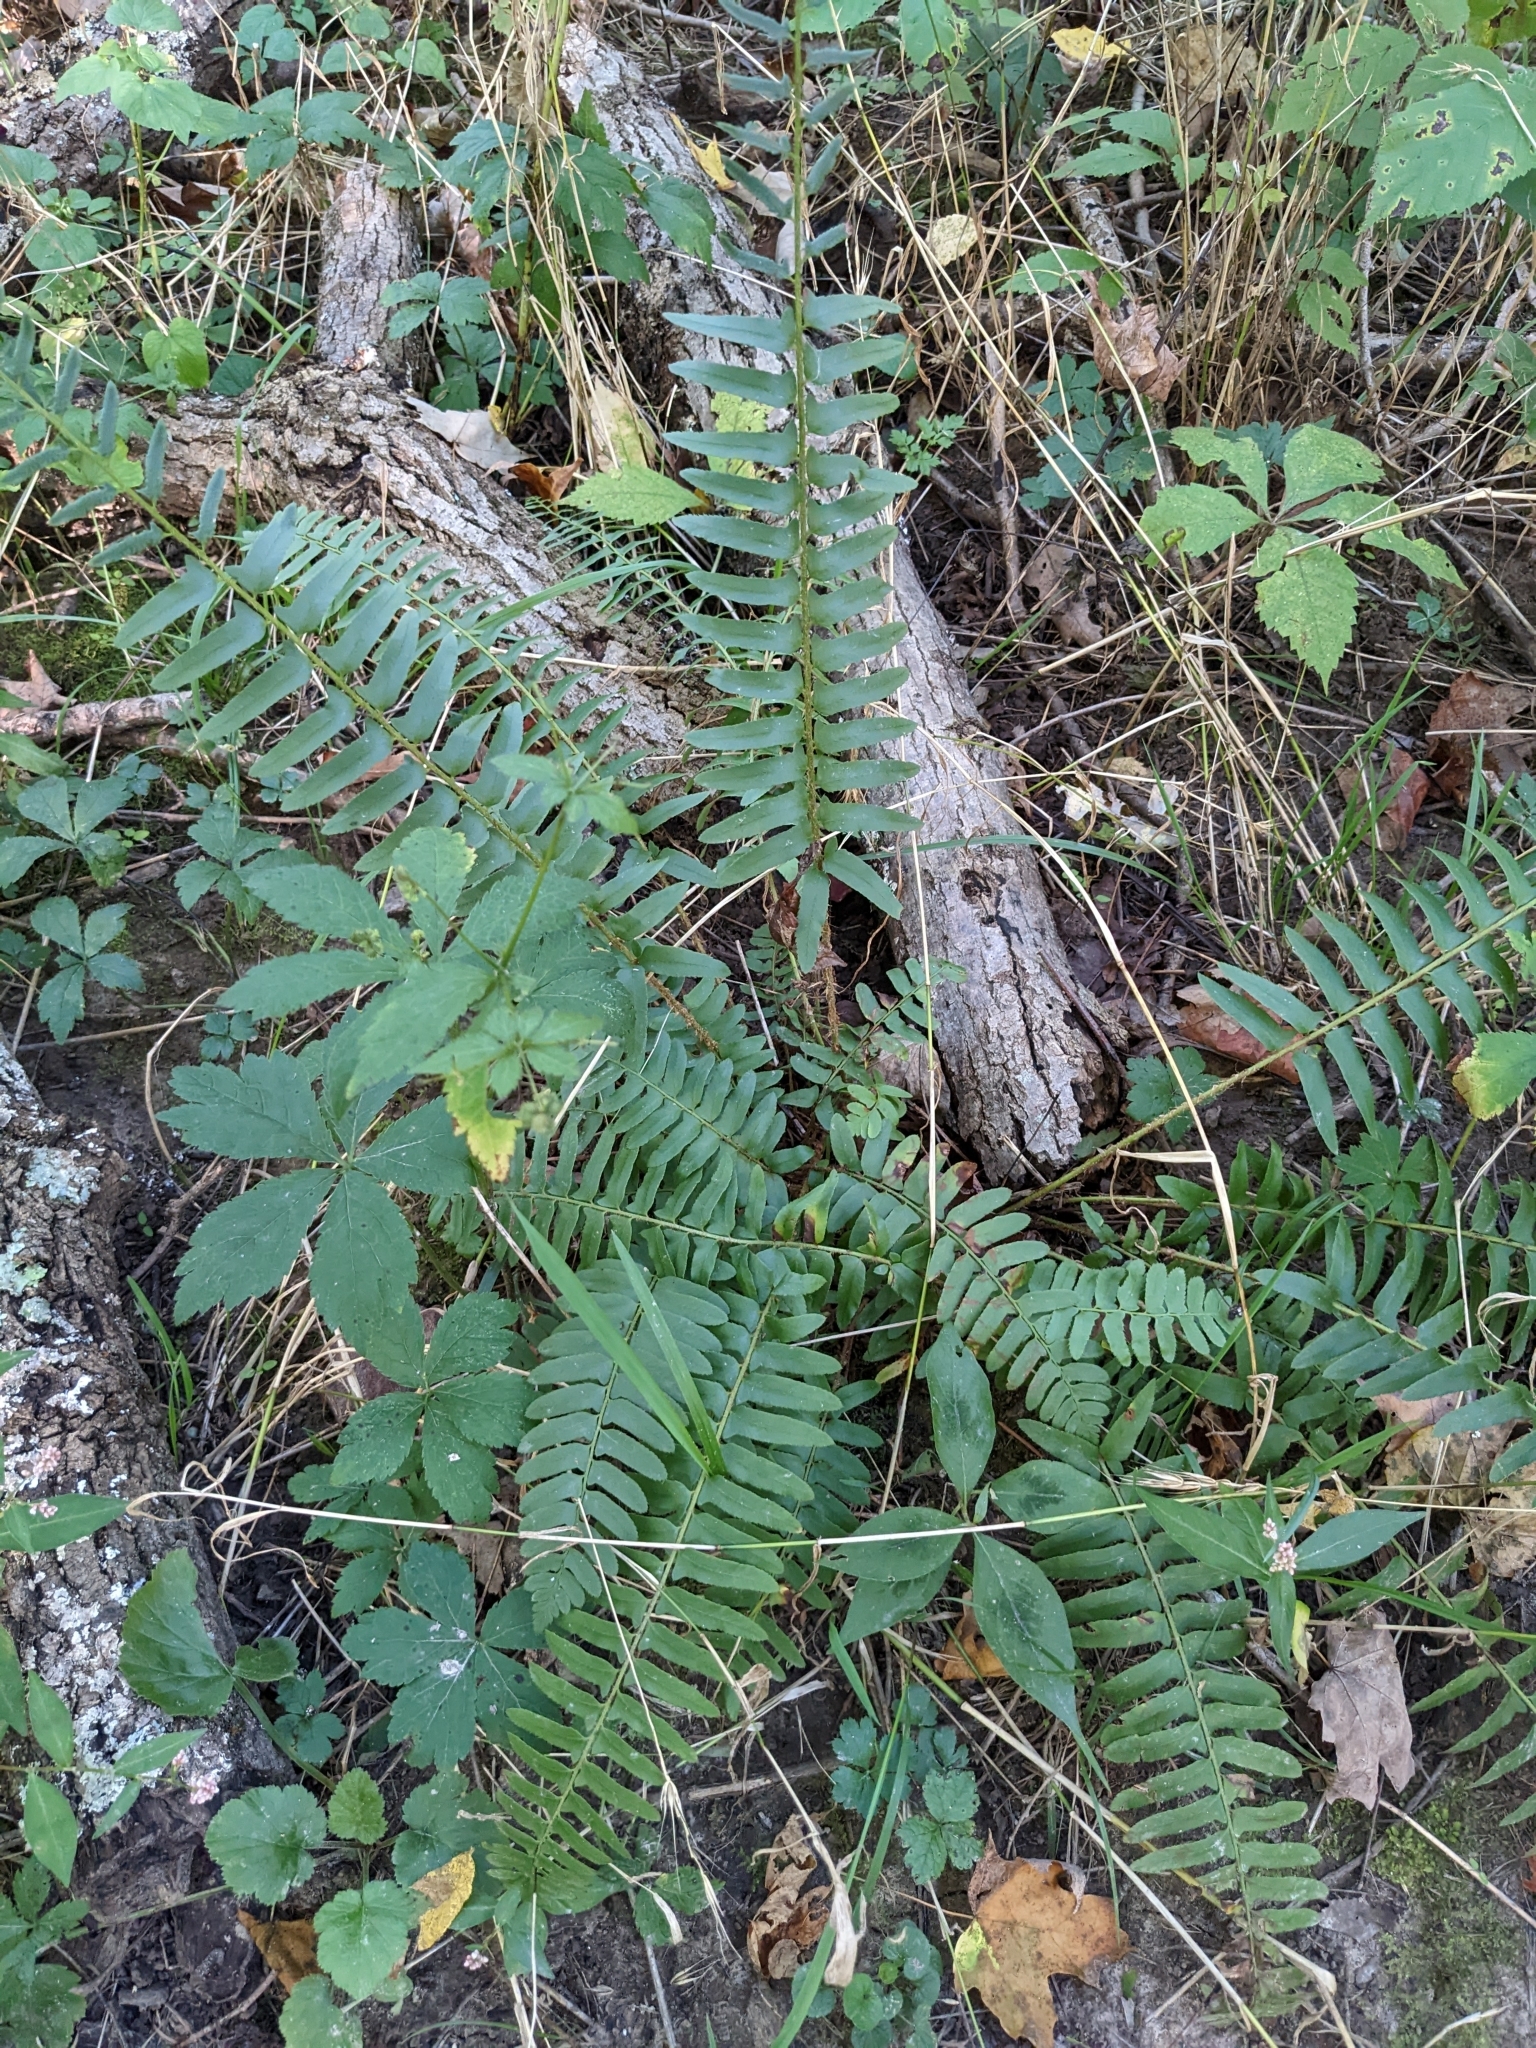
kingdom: Plantae
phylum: Tracheophyta
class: Polypodiopsida
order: Polypodiales
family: Dryopteridaceae
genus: Polystichum
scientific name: Polystichum acrostichoides
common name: Christmas fern
